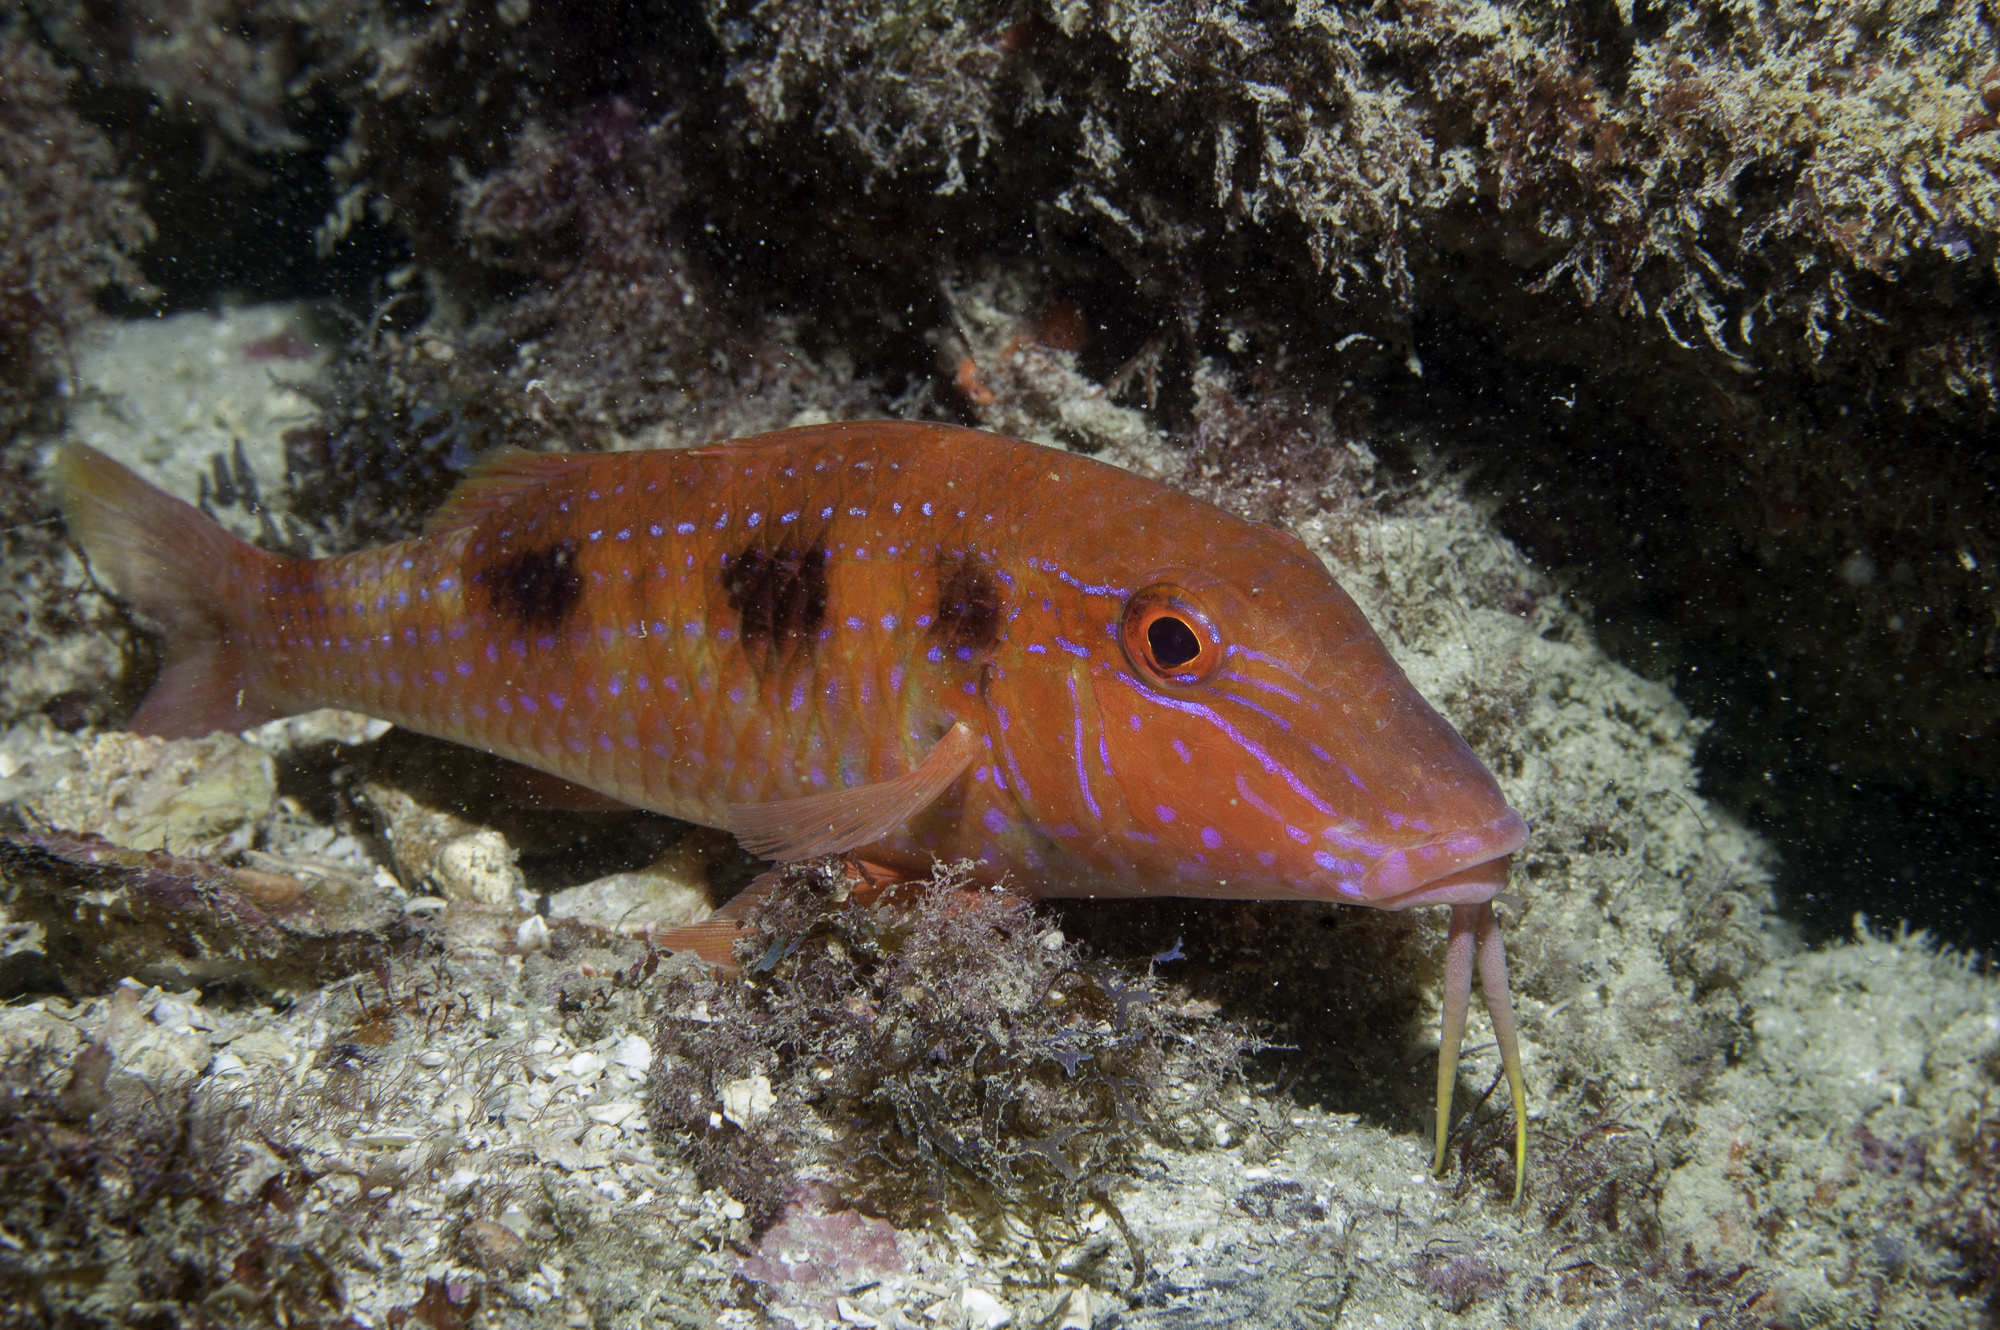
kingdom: Animalia
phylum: Chordata
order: Perciformes
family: Mullidae
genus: Pseudupeneus
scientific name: Pseudupeneus maculatus
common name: Spotted goatfish
